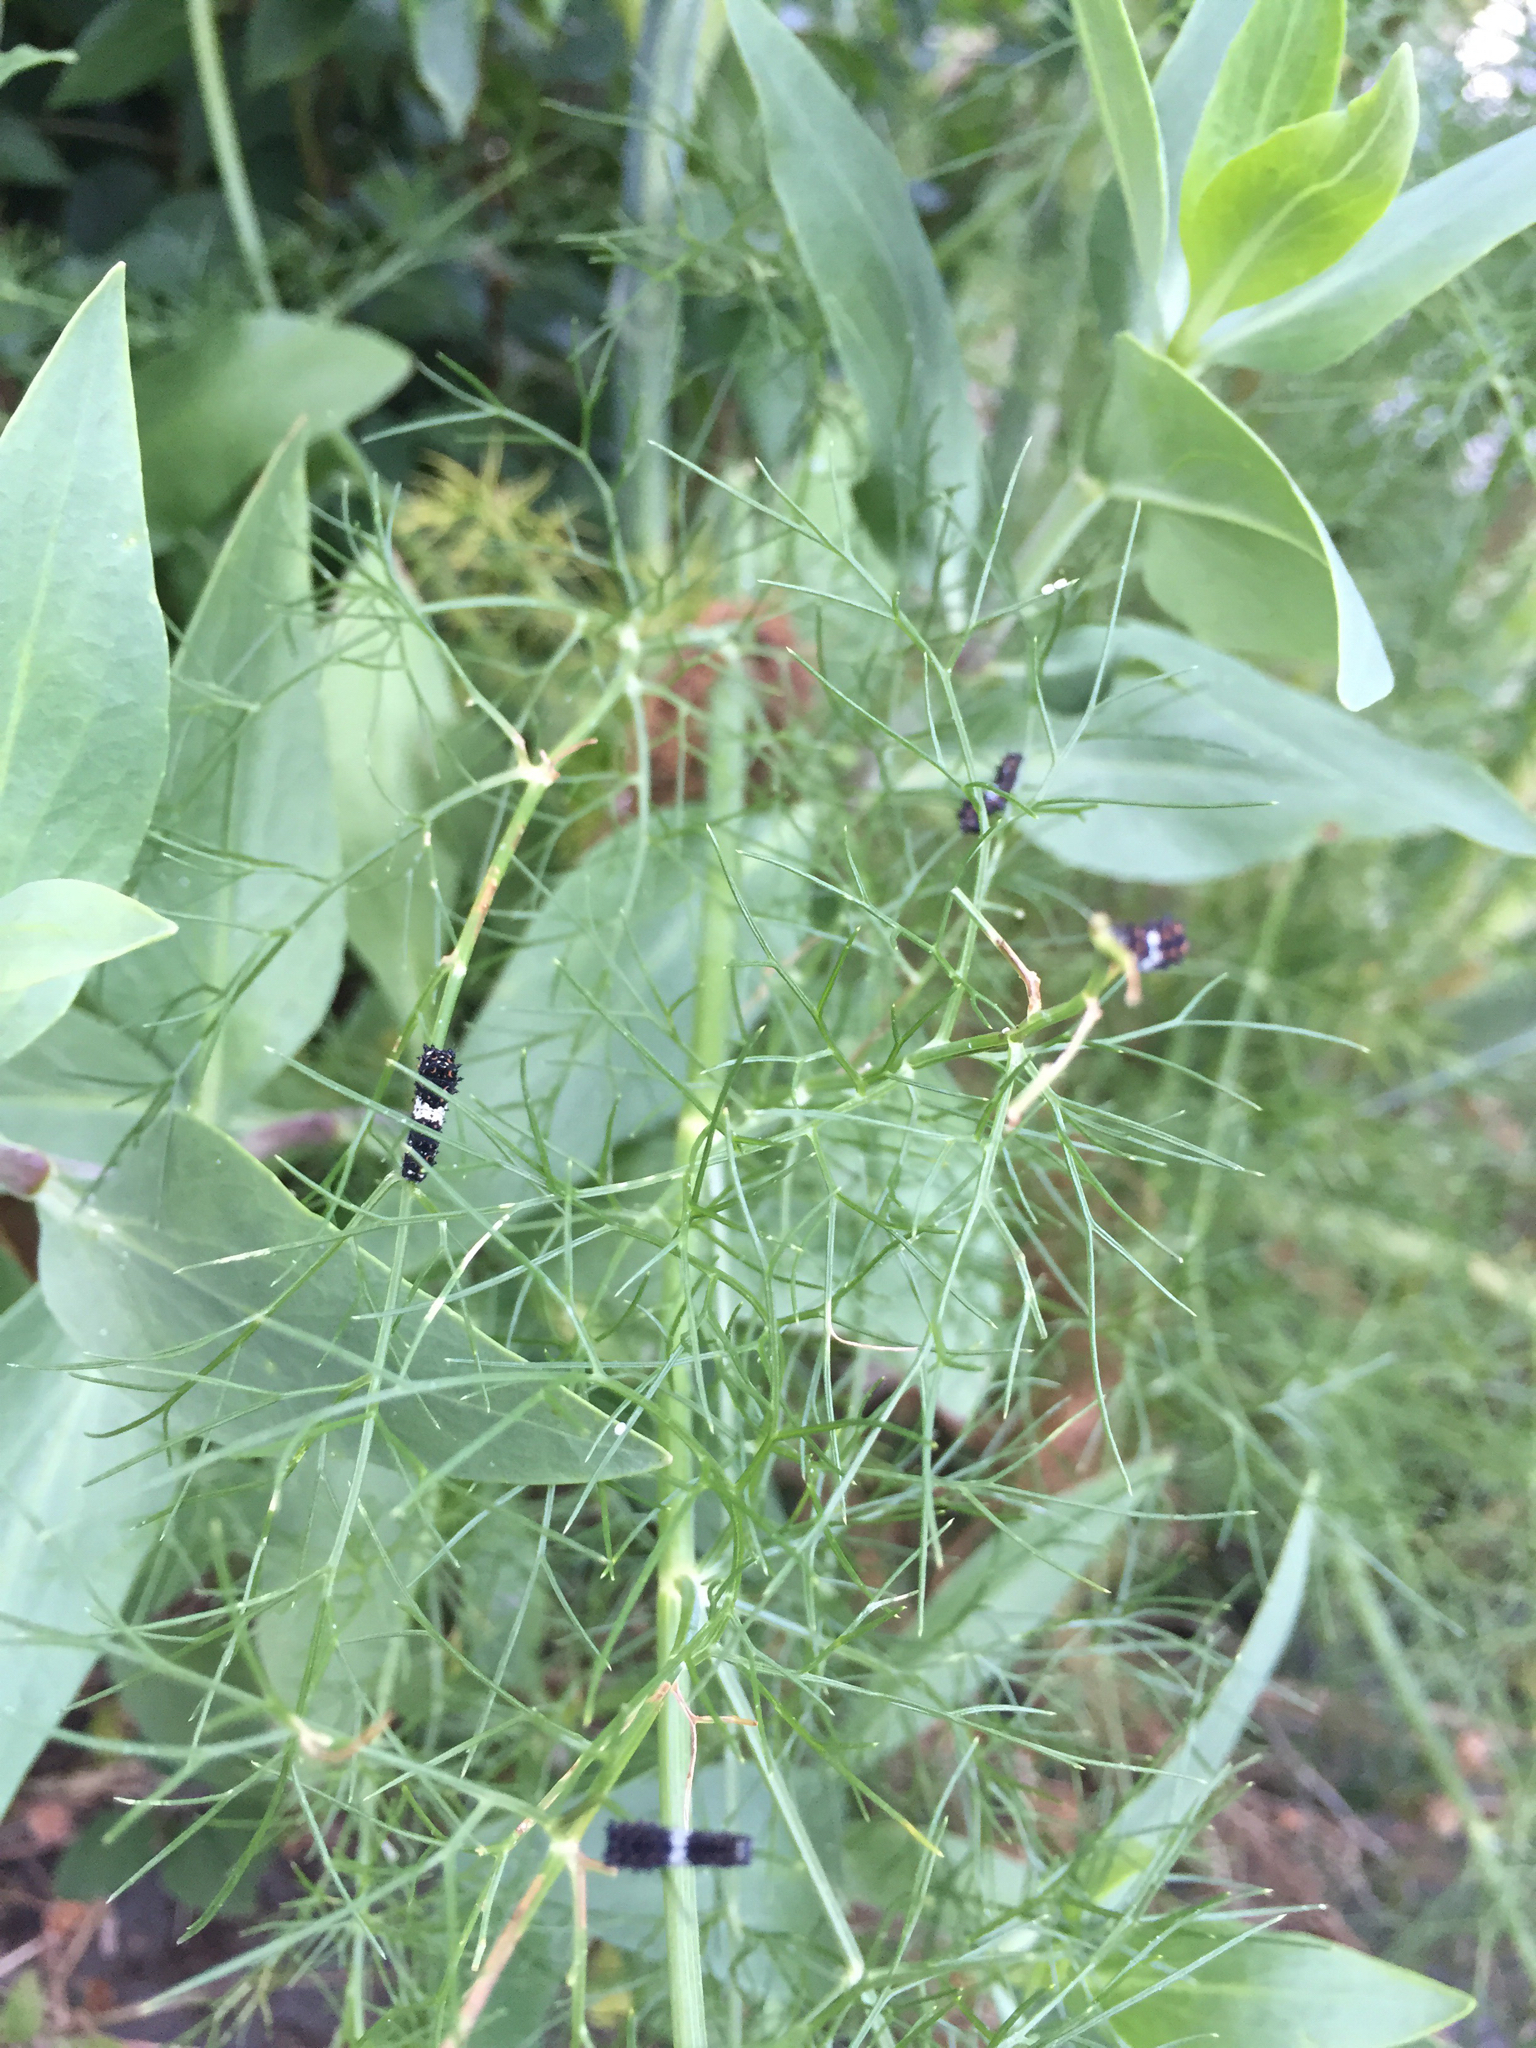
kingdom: Animalia
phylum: Arthropoda
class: Insecta
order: Lepidoptera
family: Papilionidae
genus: Papilio
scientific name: Papilio zelicaon
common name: Anise swallowtail
